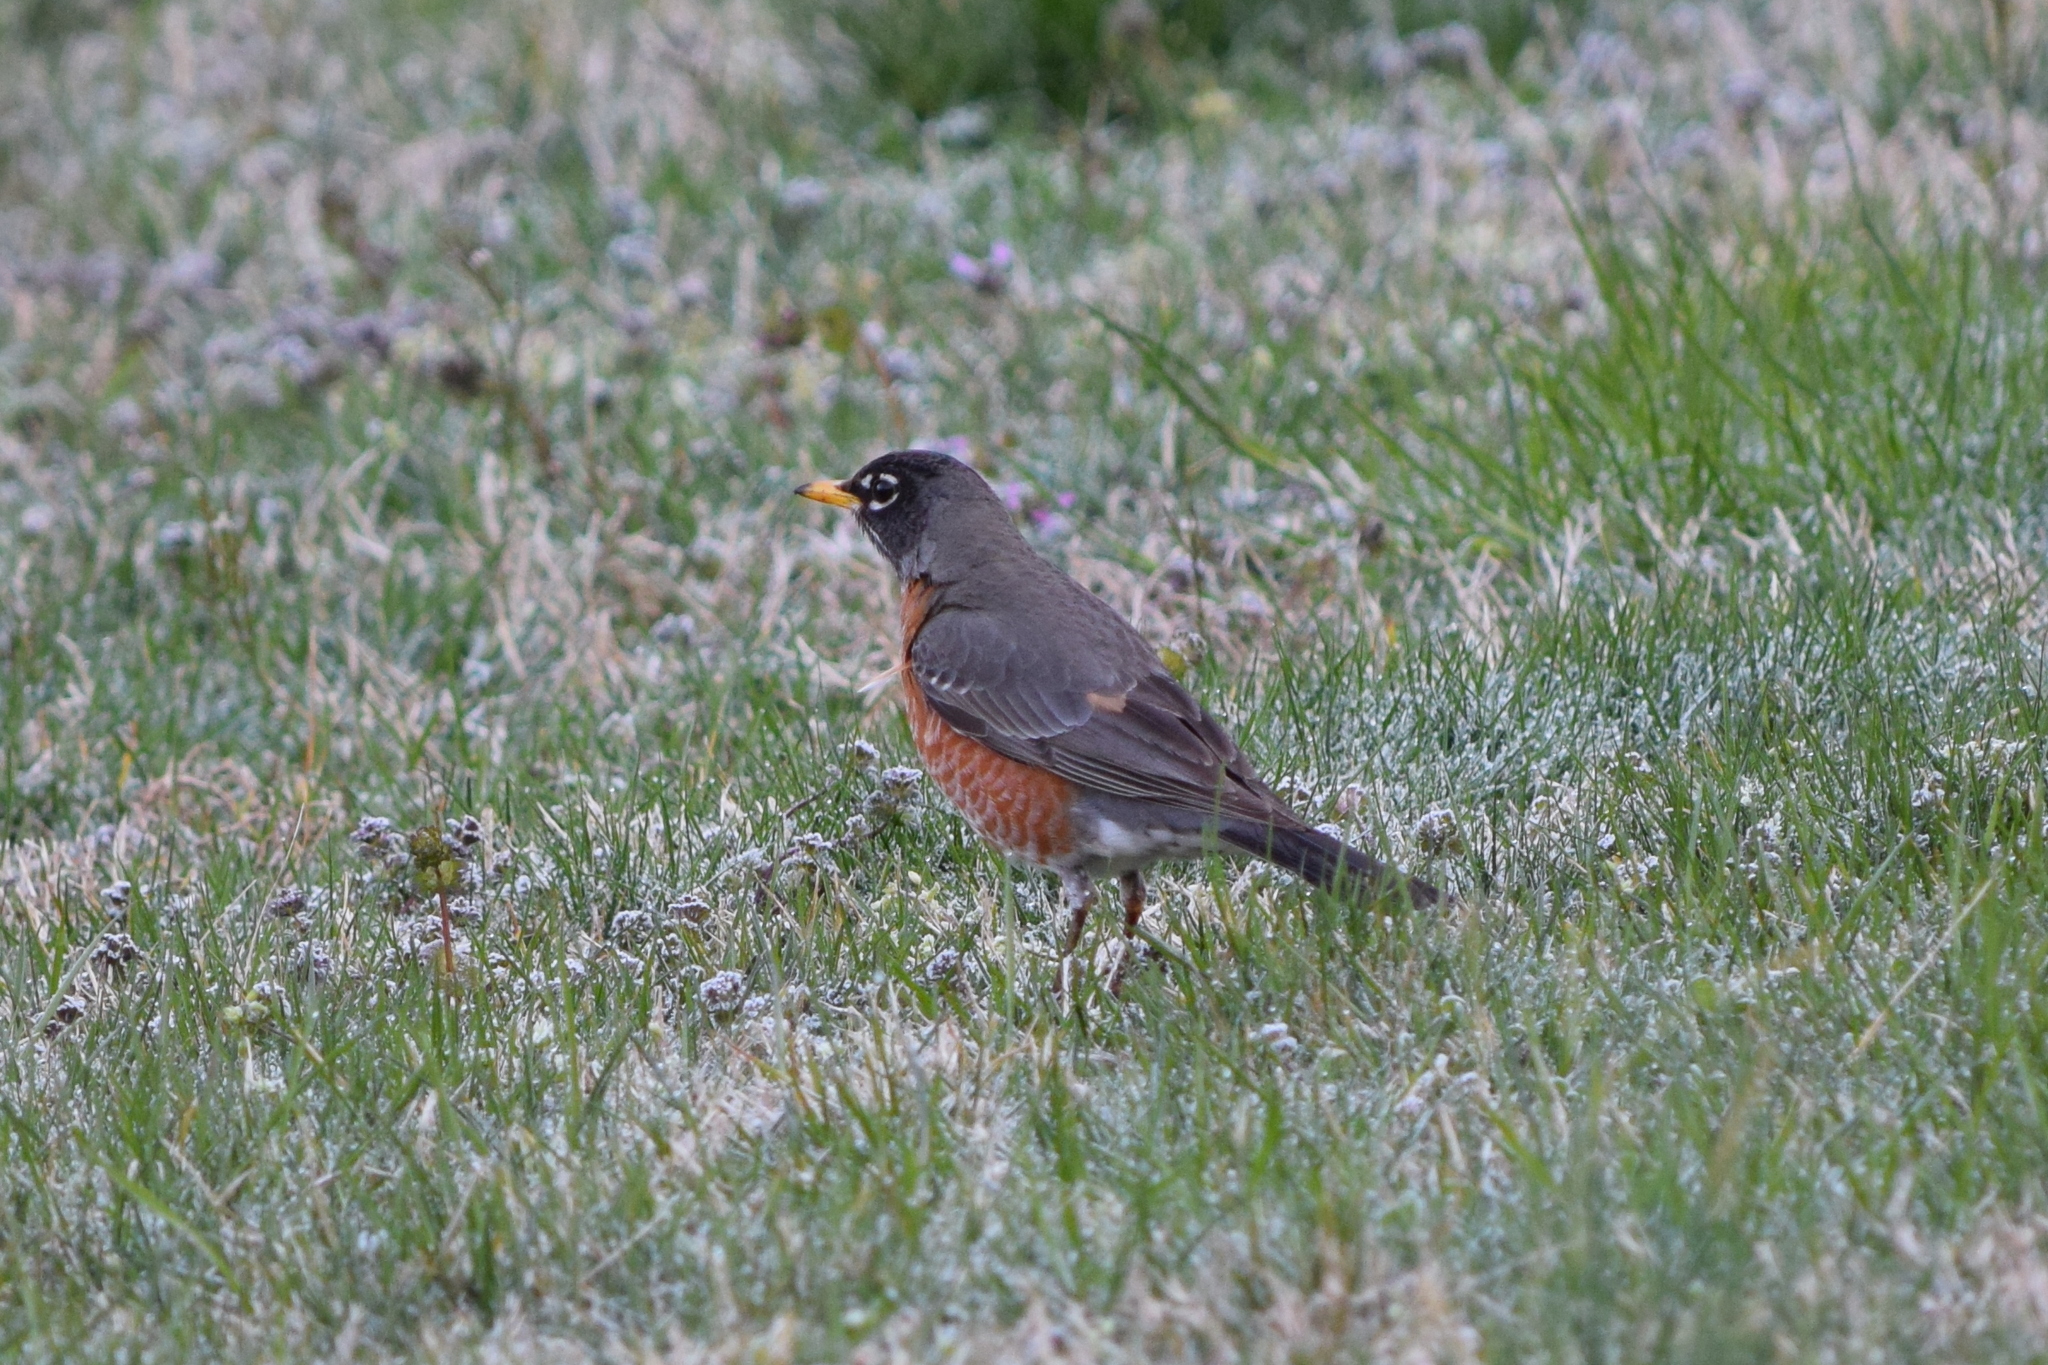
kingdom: Animalia
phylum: Chordata
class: Aves
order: Passeriformes
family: Turdidae
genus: Turdus
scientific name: Turdus migratorius
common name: American robin
